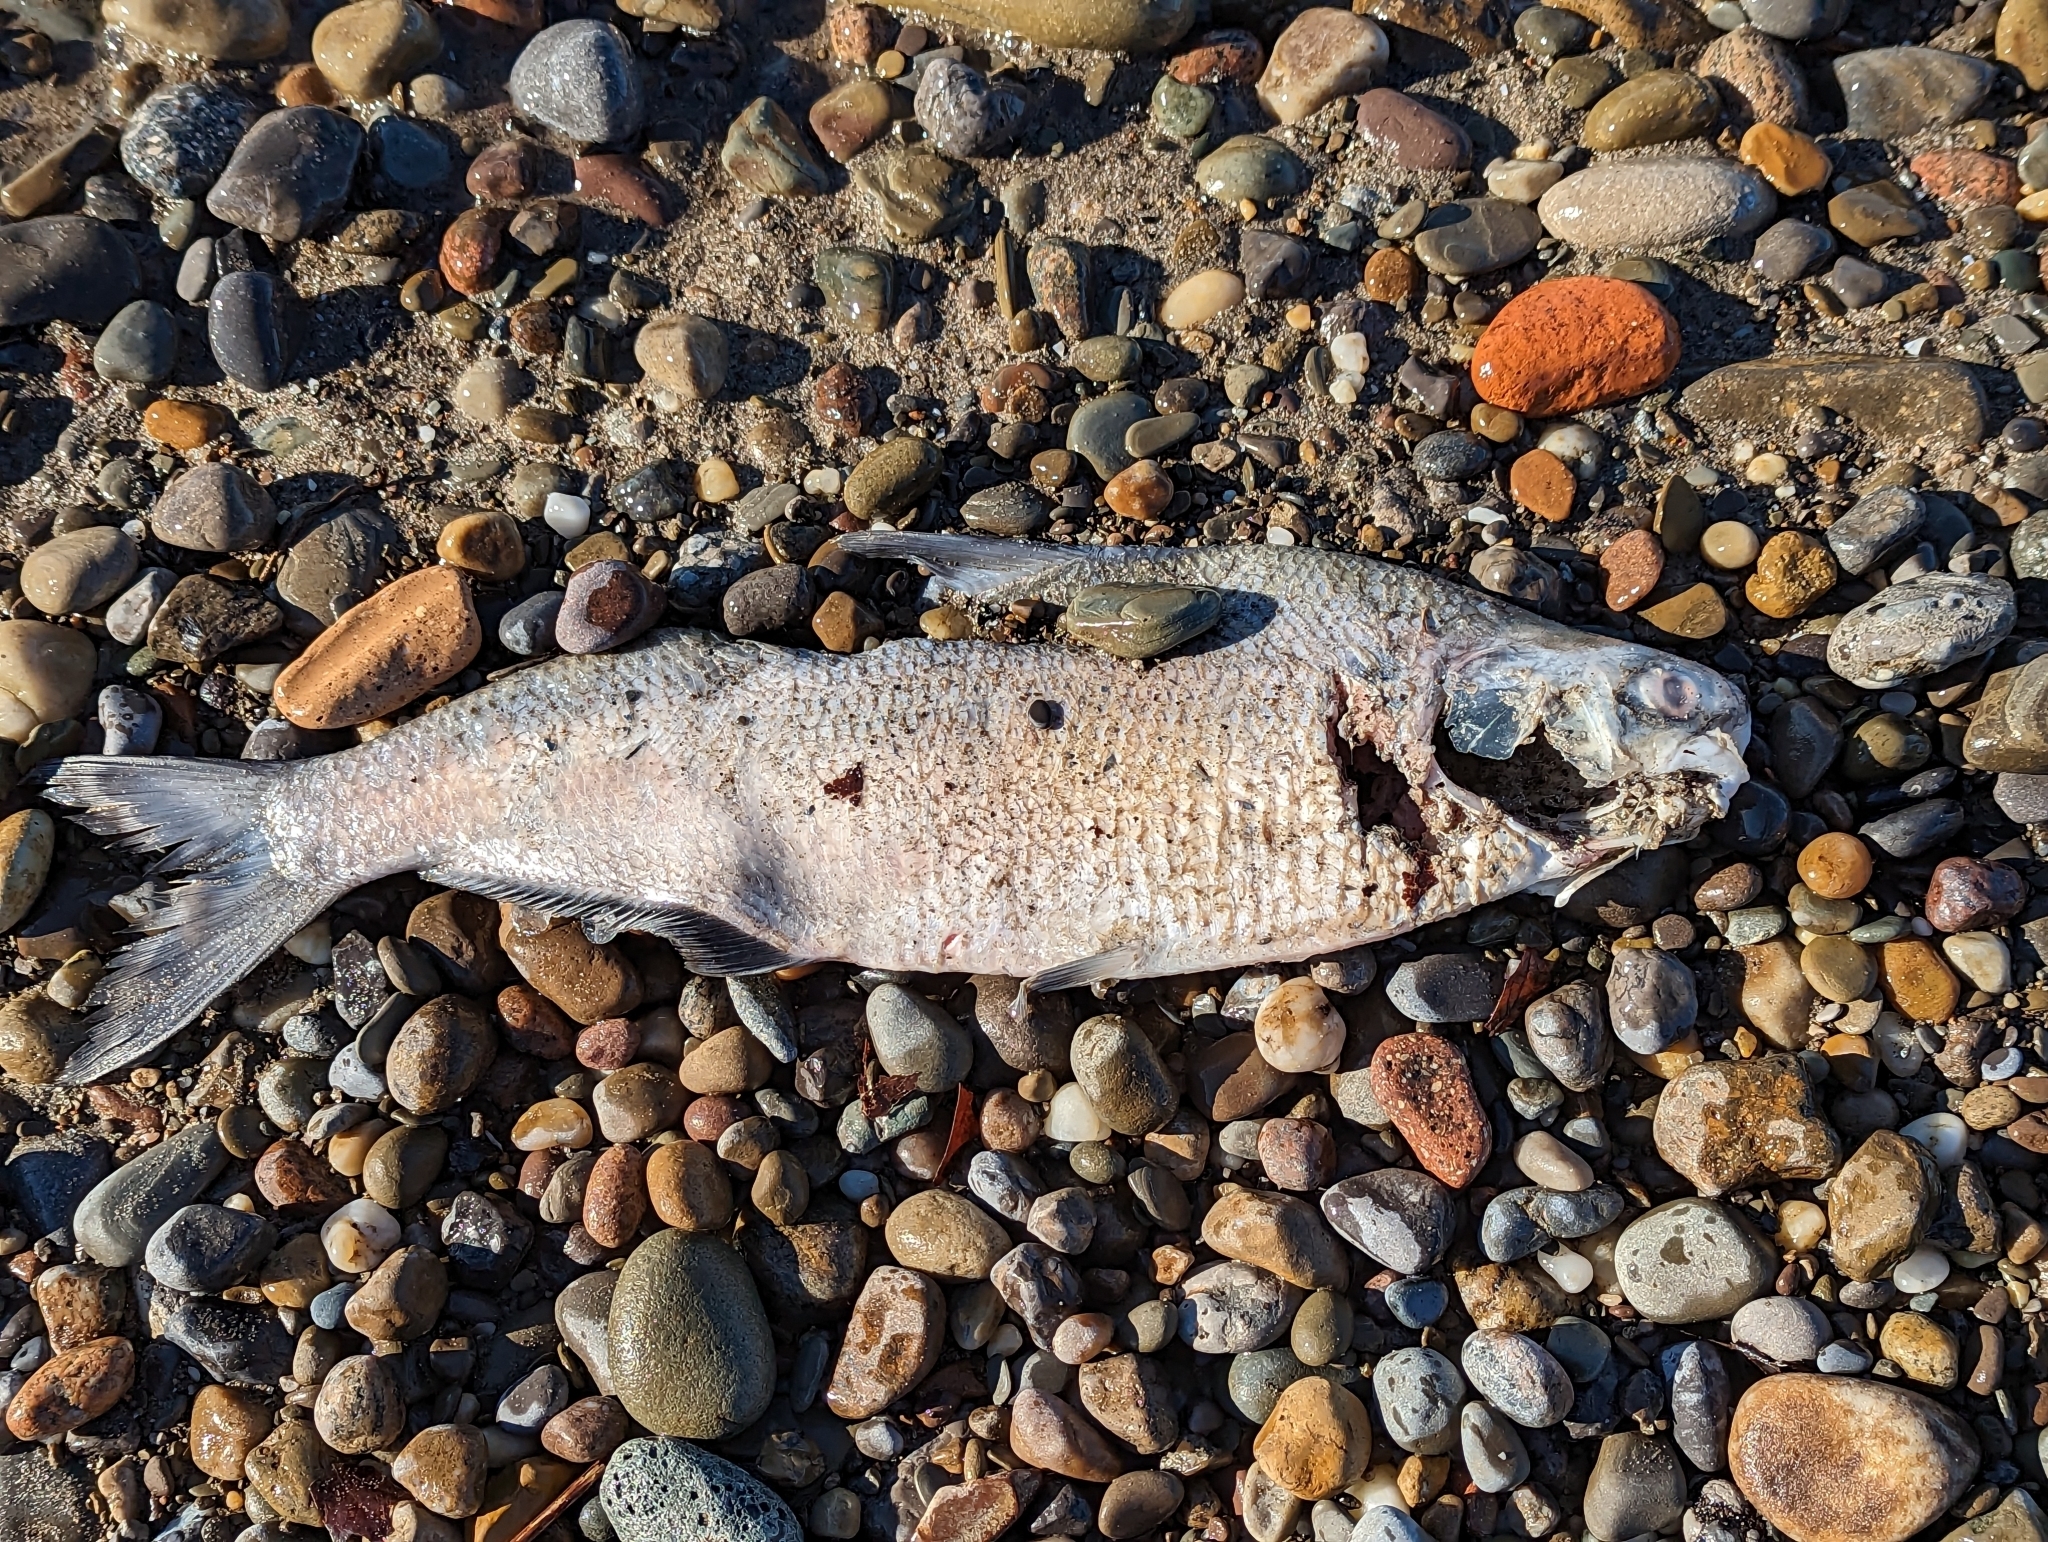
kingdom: Animalia
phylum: Chordata
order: Clupeiformes
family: Clupeidae
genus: Dorosoma
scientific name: Dorosoma cepedianum
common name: Gizzard shad
